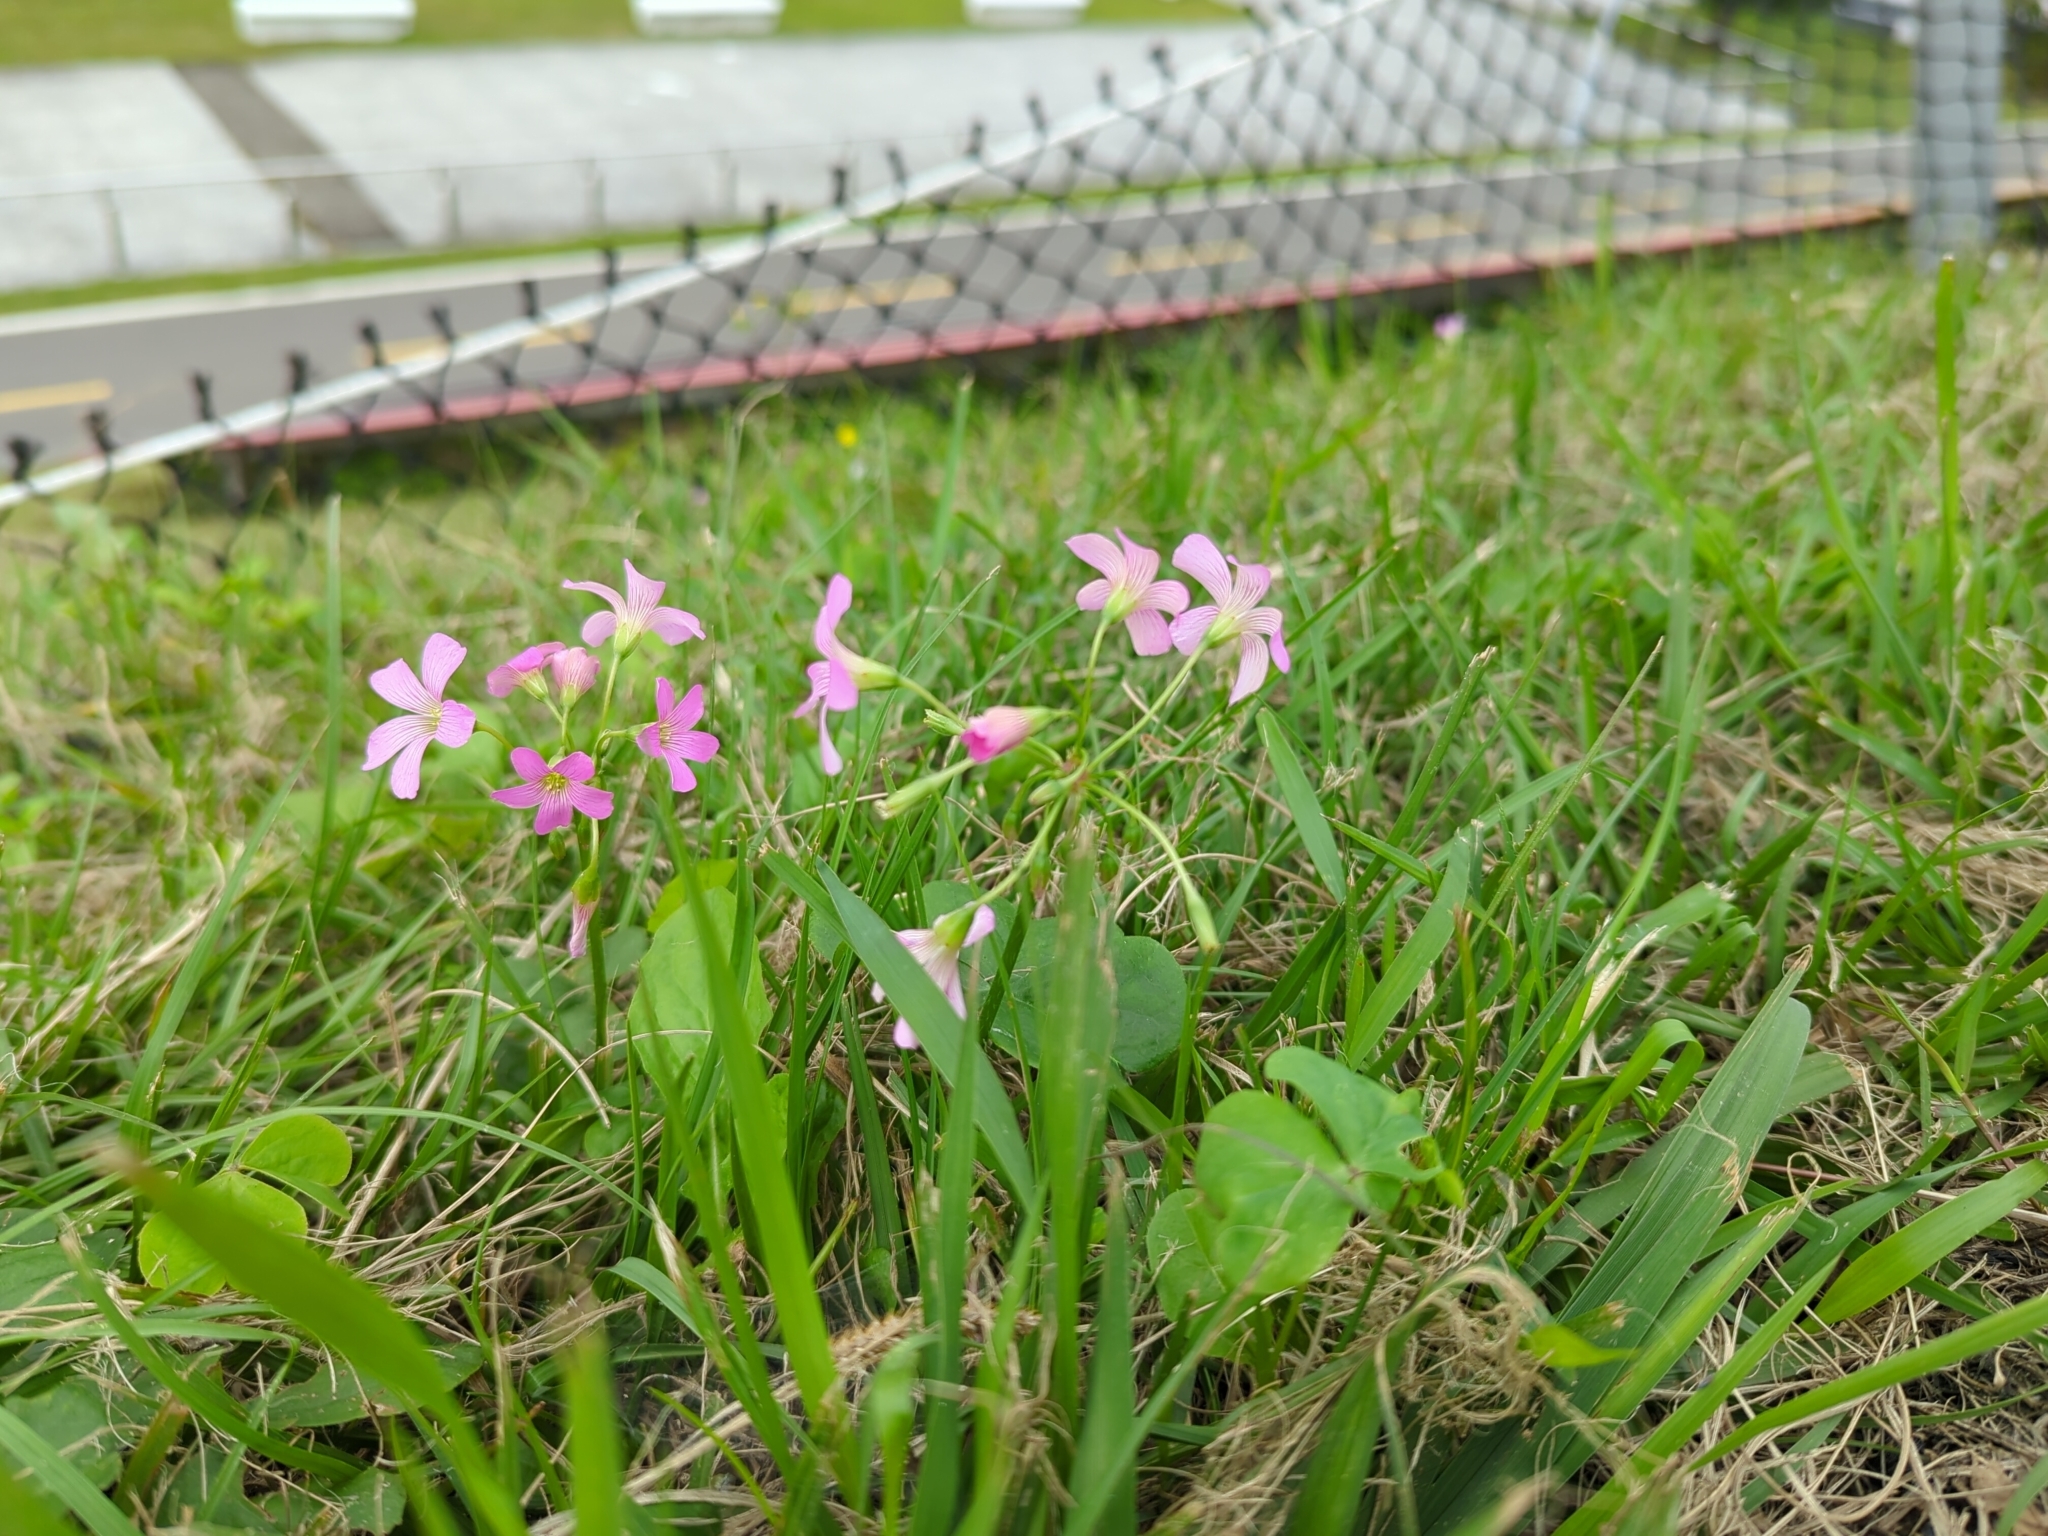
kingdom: Plantae
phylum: Tracheophyta
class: Magnoliopsida
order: Oxalidales
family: Oxalidaceae
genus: Oxalis
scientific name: Oxalis debilis
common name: Large-flowered pink-sorrel
